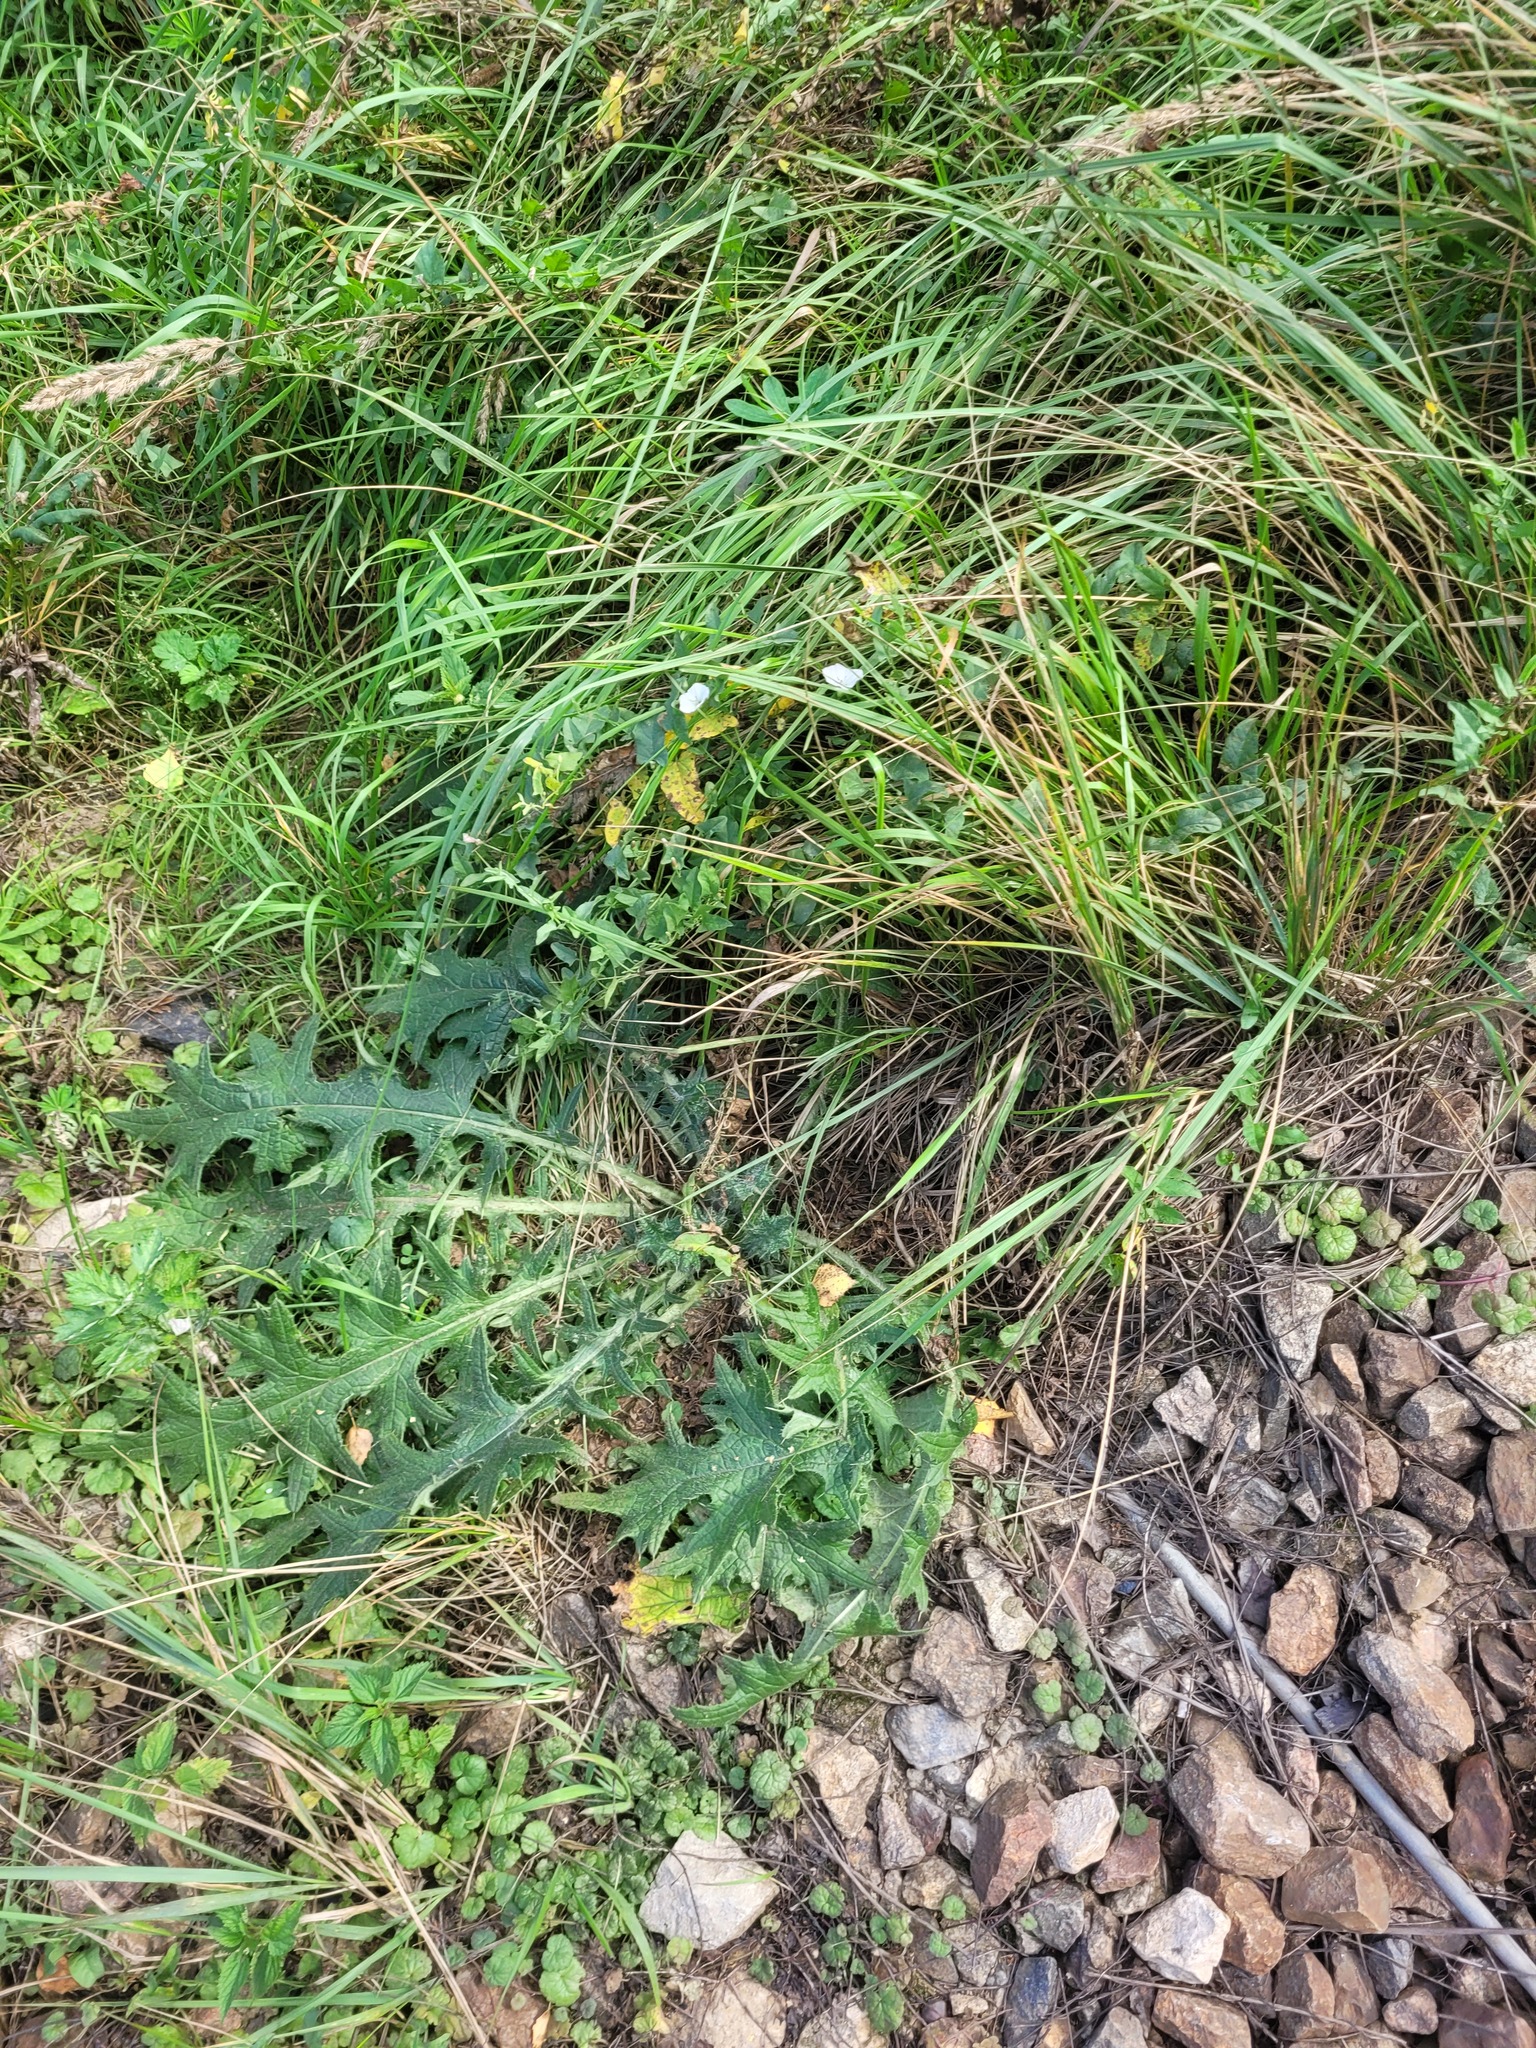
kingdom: Plantae
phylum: Tracheophyta
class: Magnoliopsida
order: Asterales
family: Asteraceae
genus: Cirsium
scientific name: Cirsium vulgare
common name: Bull thistle
